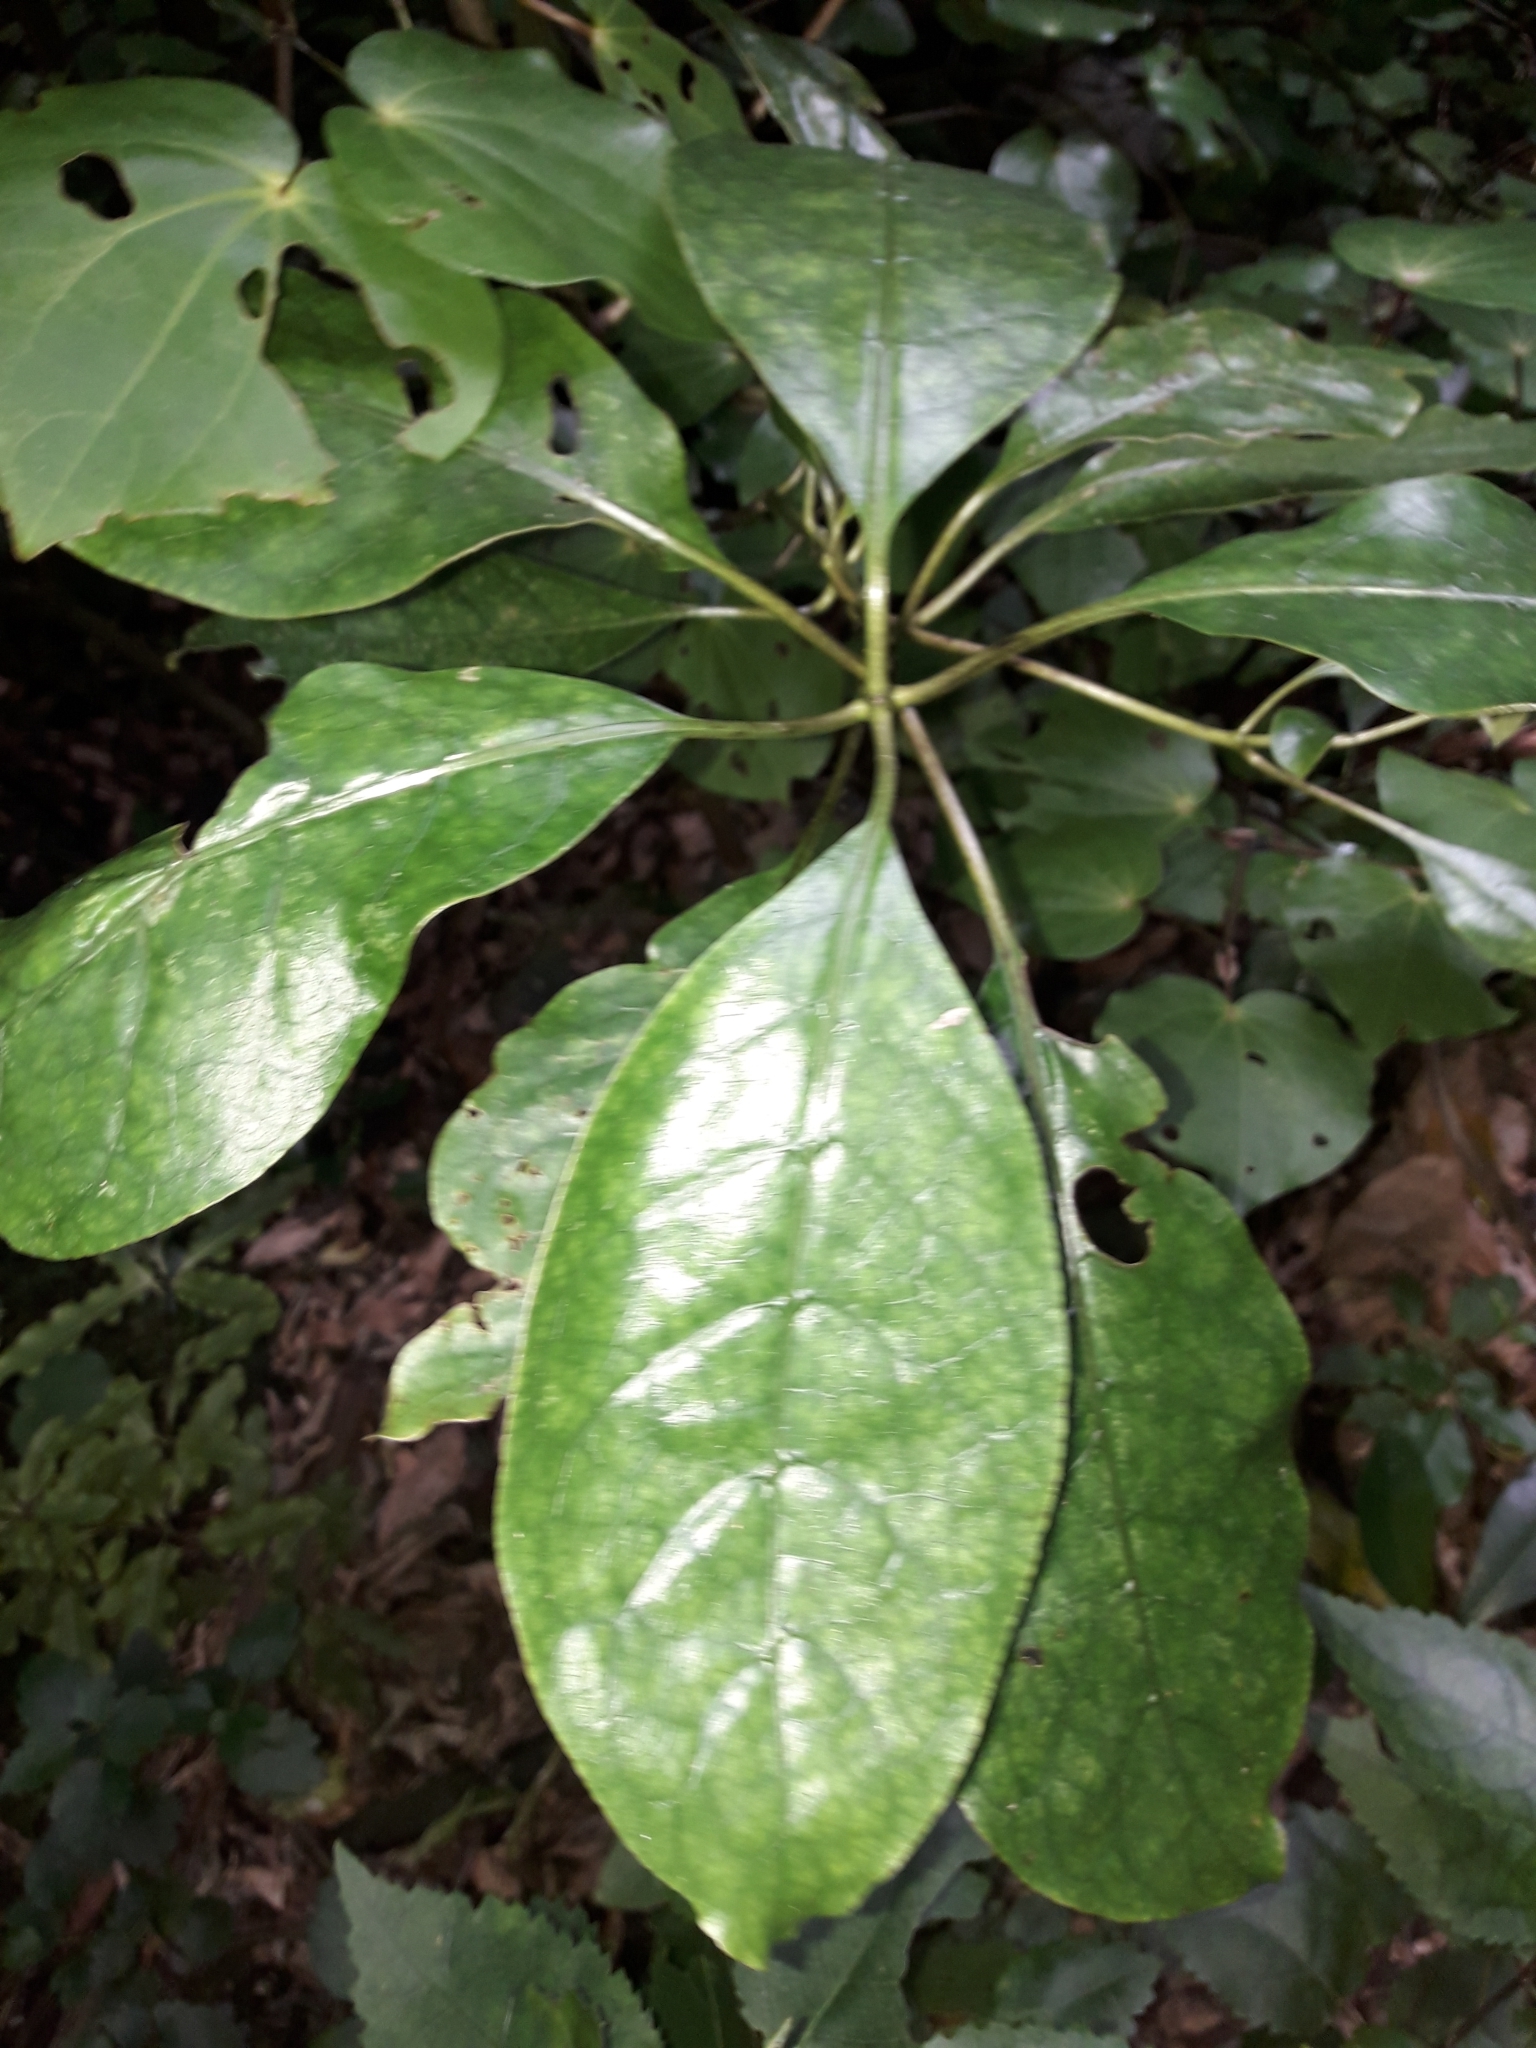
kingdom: Plantae
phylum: Tracheophyta
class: Magnoliopsida
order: Gentianales
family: Rubiaceae
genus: Coprosma
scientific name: Coprosma autumnalis
